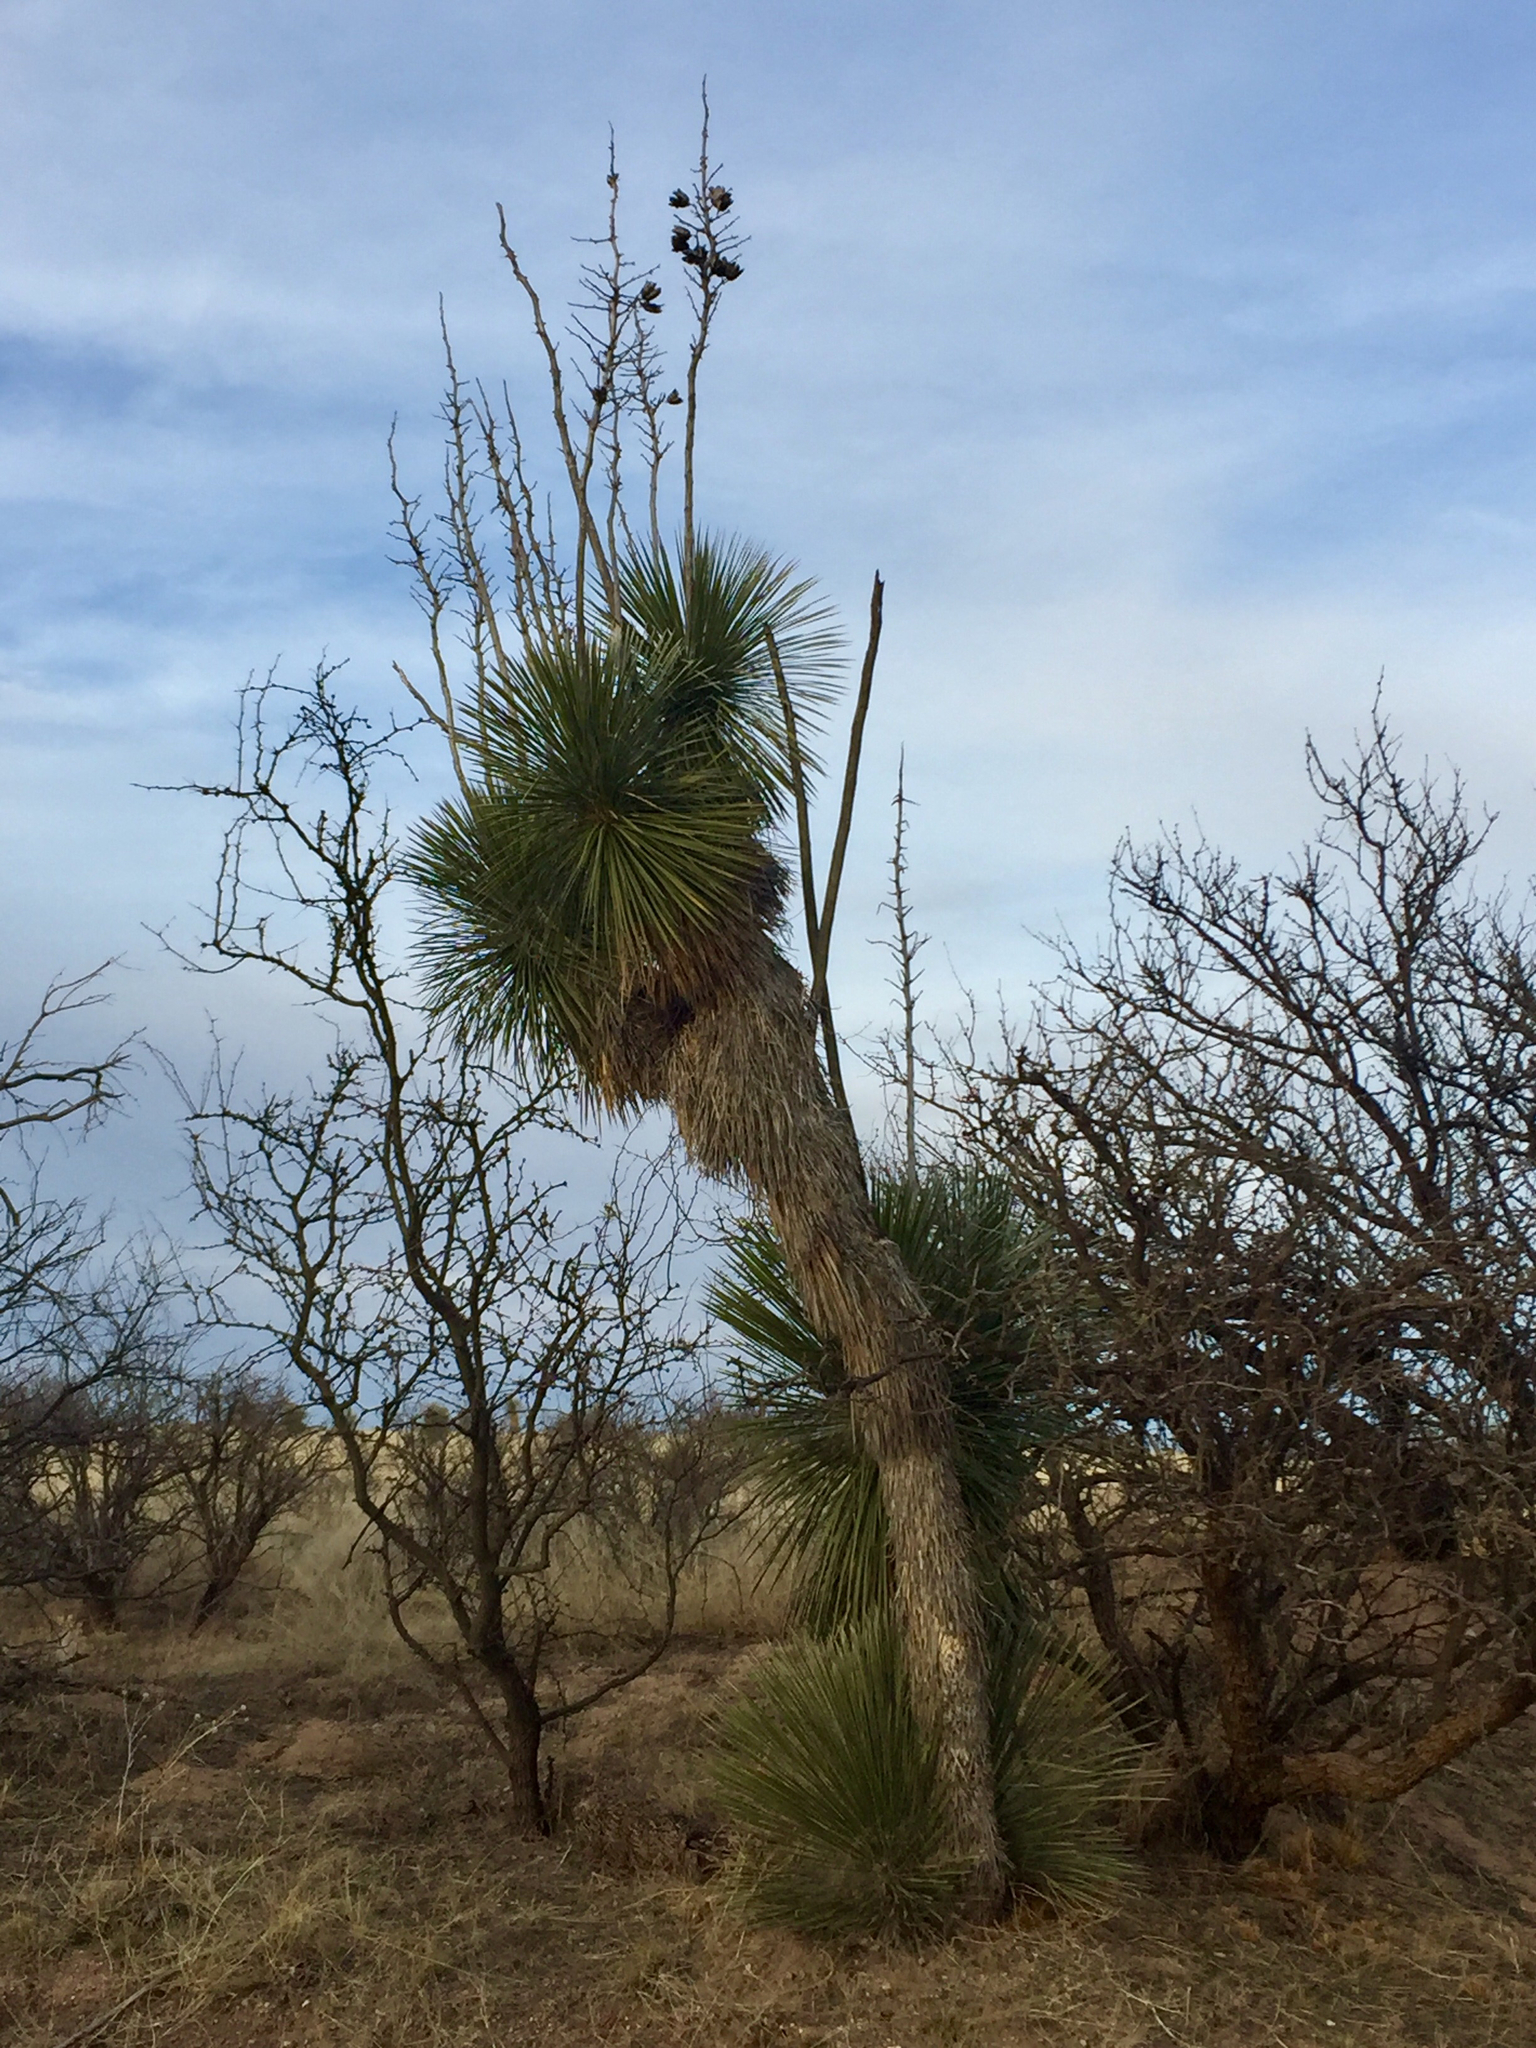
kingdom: Plantae
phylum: Tracheophyta
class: Liliopsida
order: Asparagales
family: Asparagaceae
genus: Yucca
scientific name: Yucca elata
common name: Palmella
